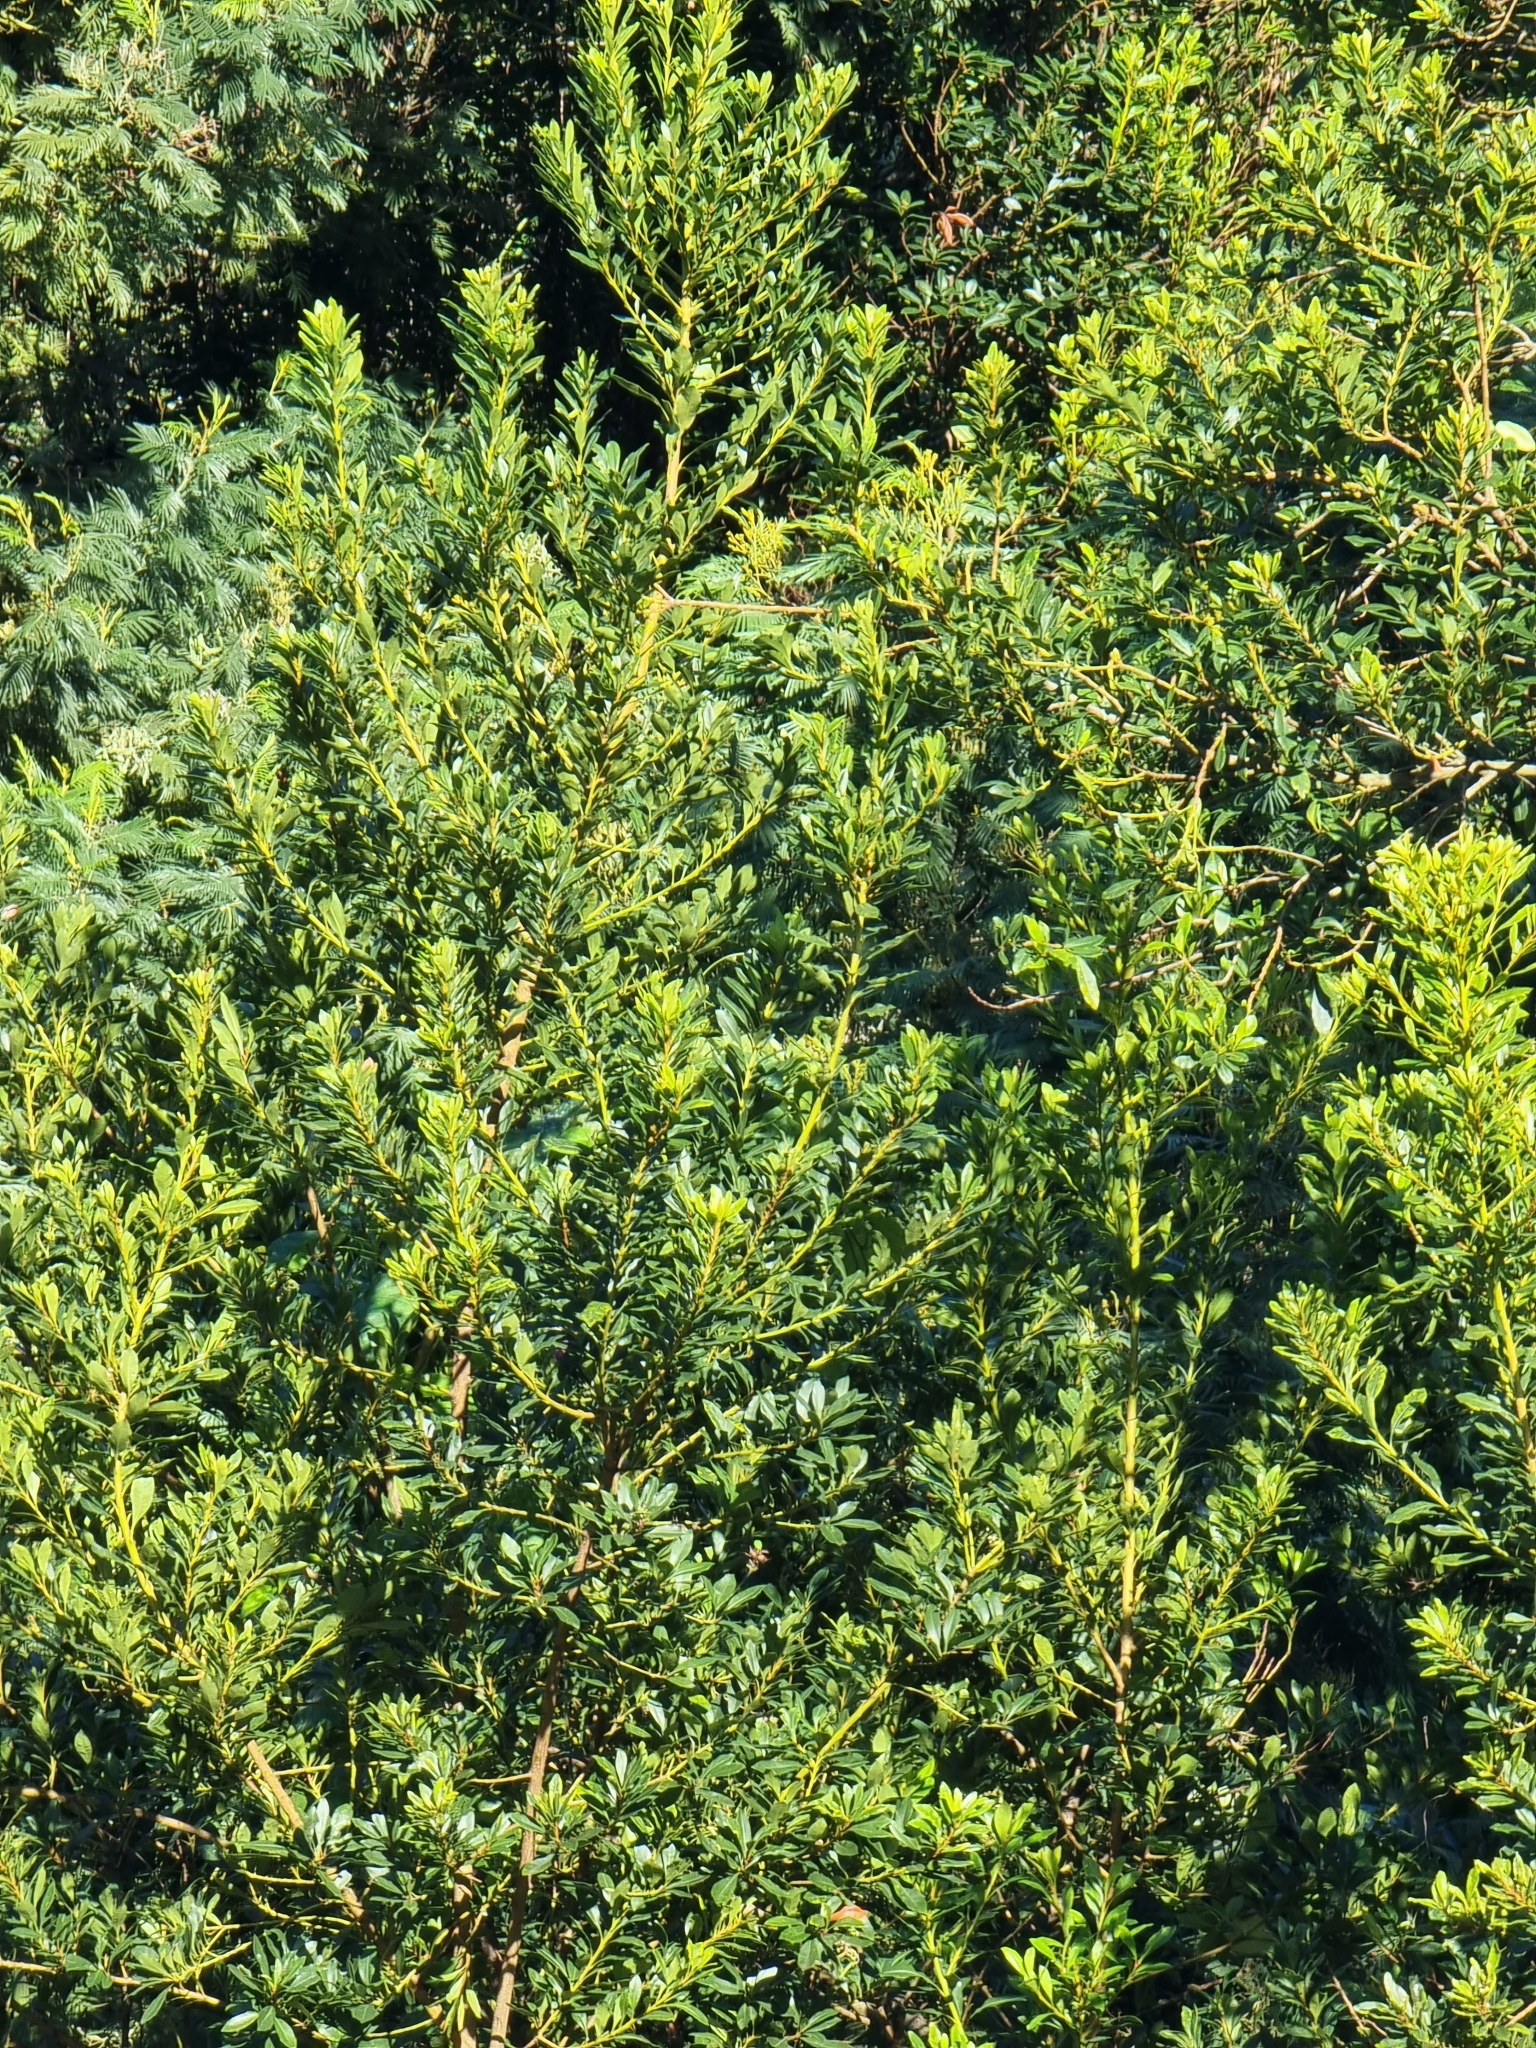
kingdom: Plantae
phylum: Tracheophyta
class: Magnoliopsida
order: Fagales
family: Myricaceae
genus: Morella
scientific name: Morella faya
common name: Firetree
